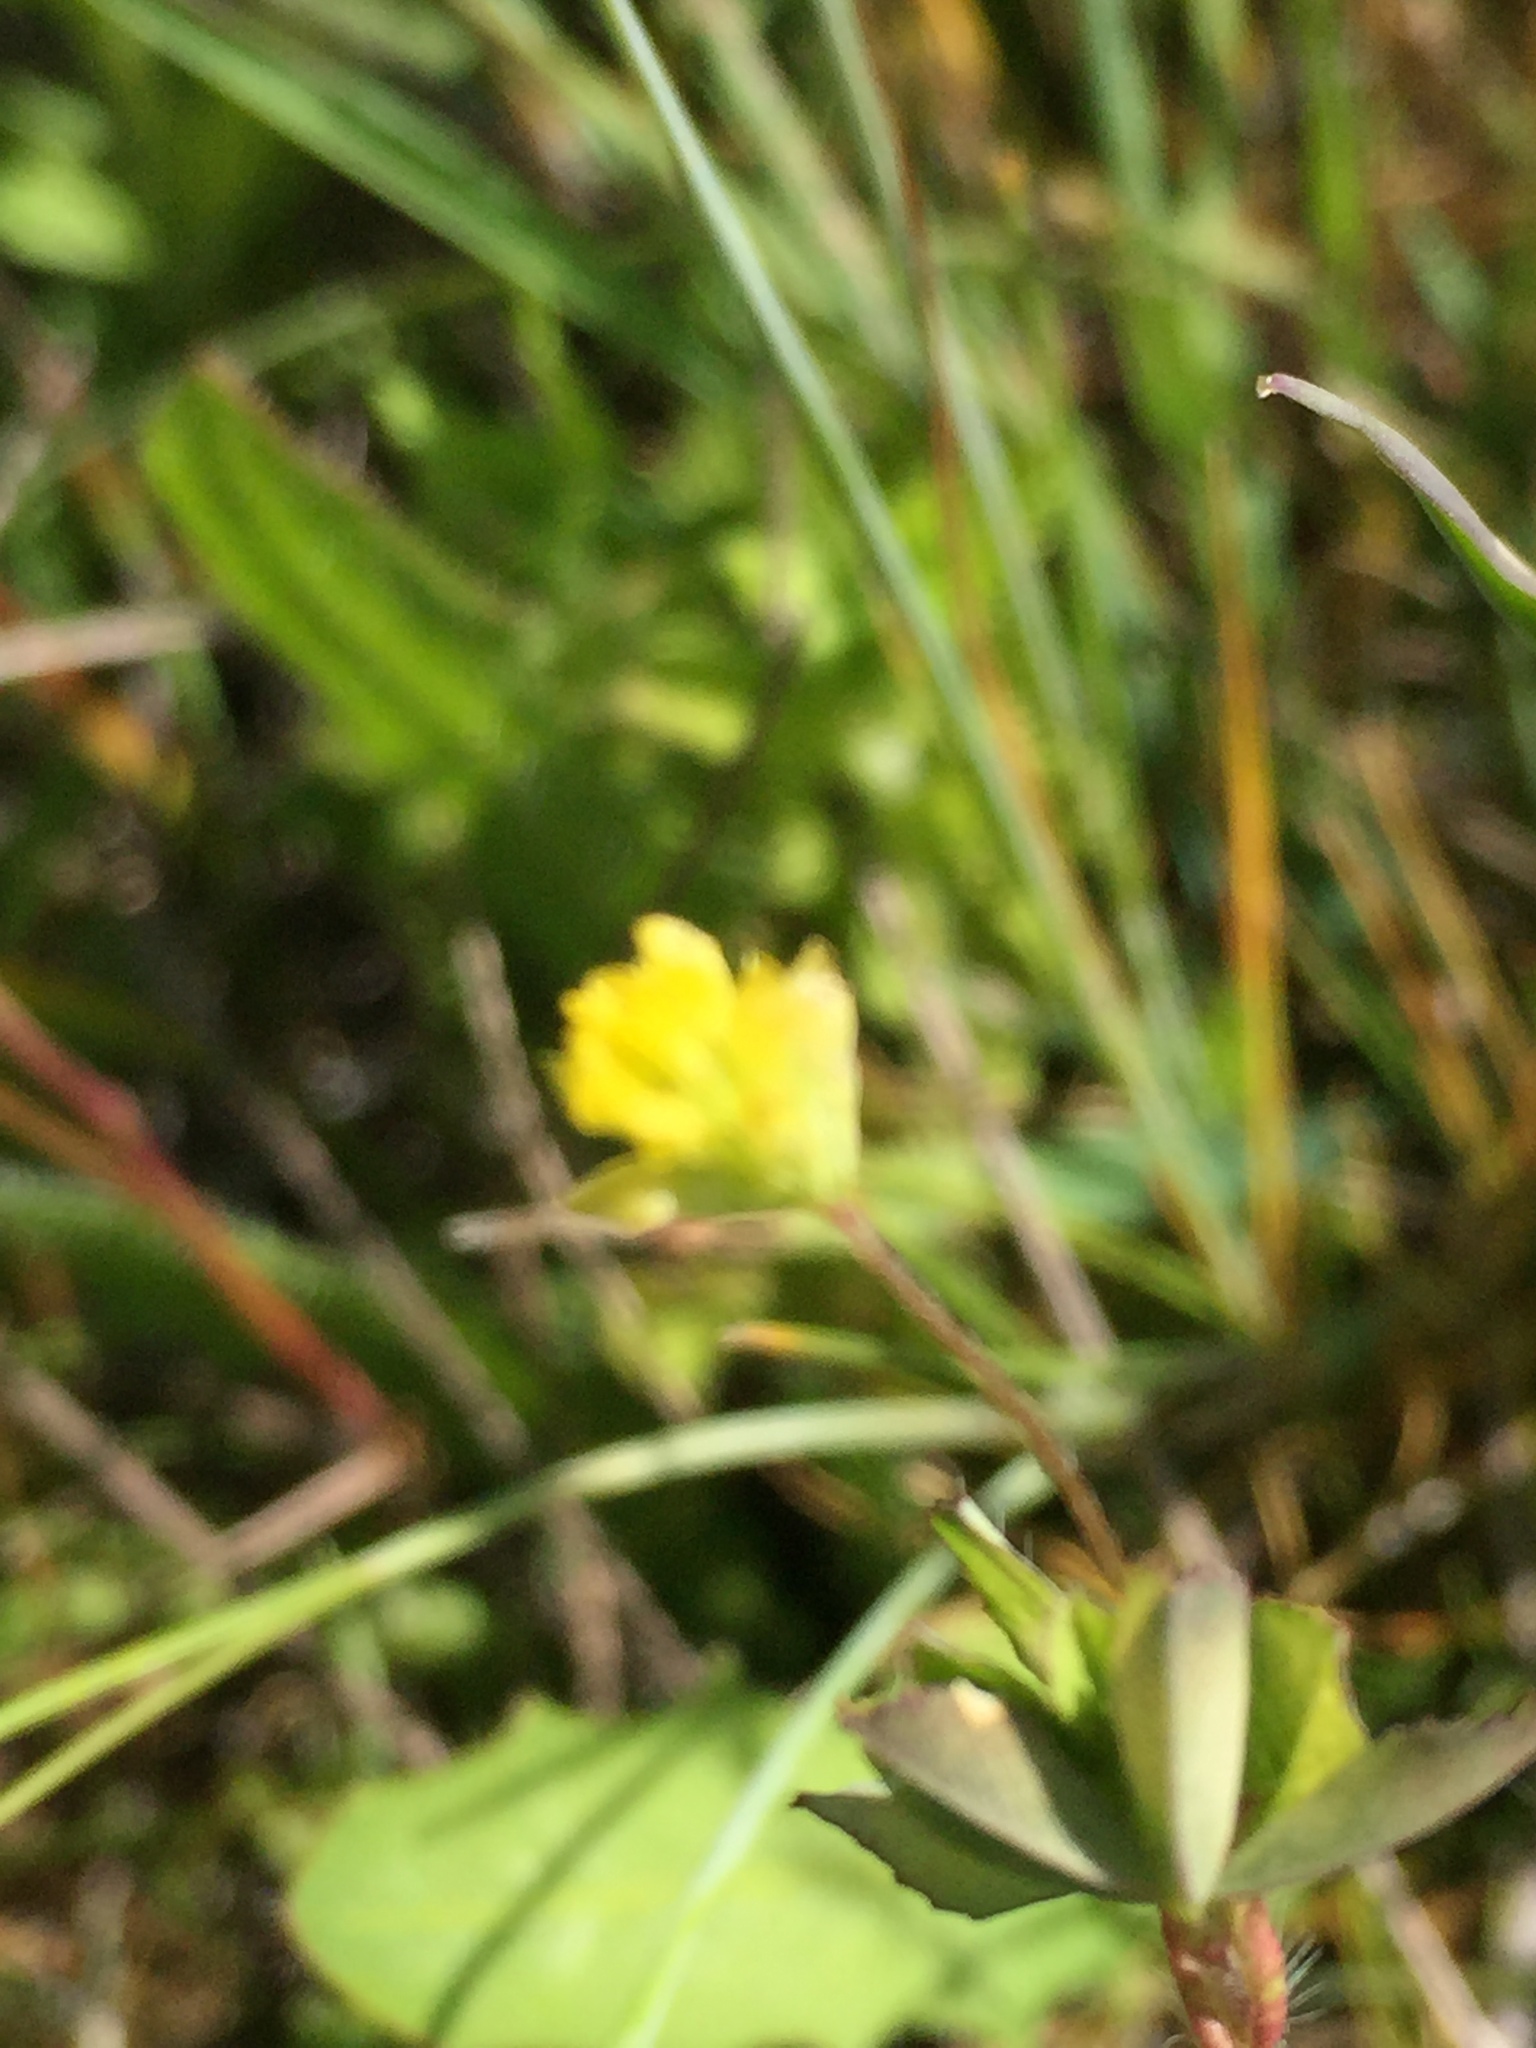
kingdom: Plantae
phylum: Tracheophyta
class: Magnoliopsida
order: Fabales
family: Fabaceae
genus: Trifolium
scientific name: Trifolium dubium
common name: Suckling clover
